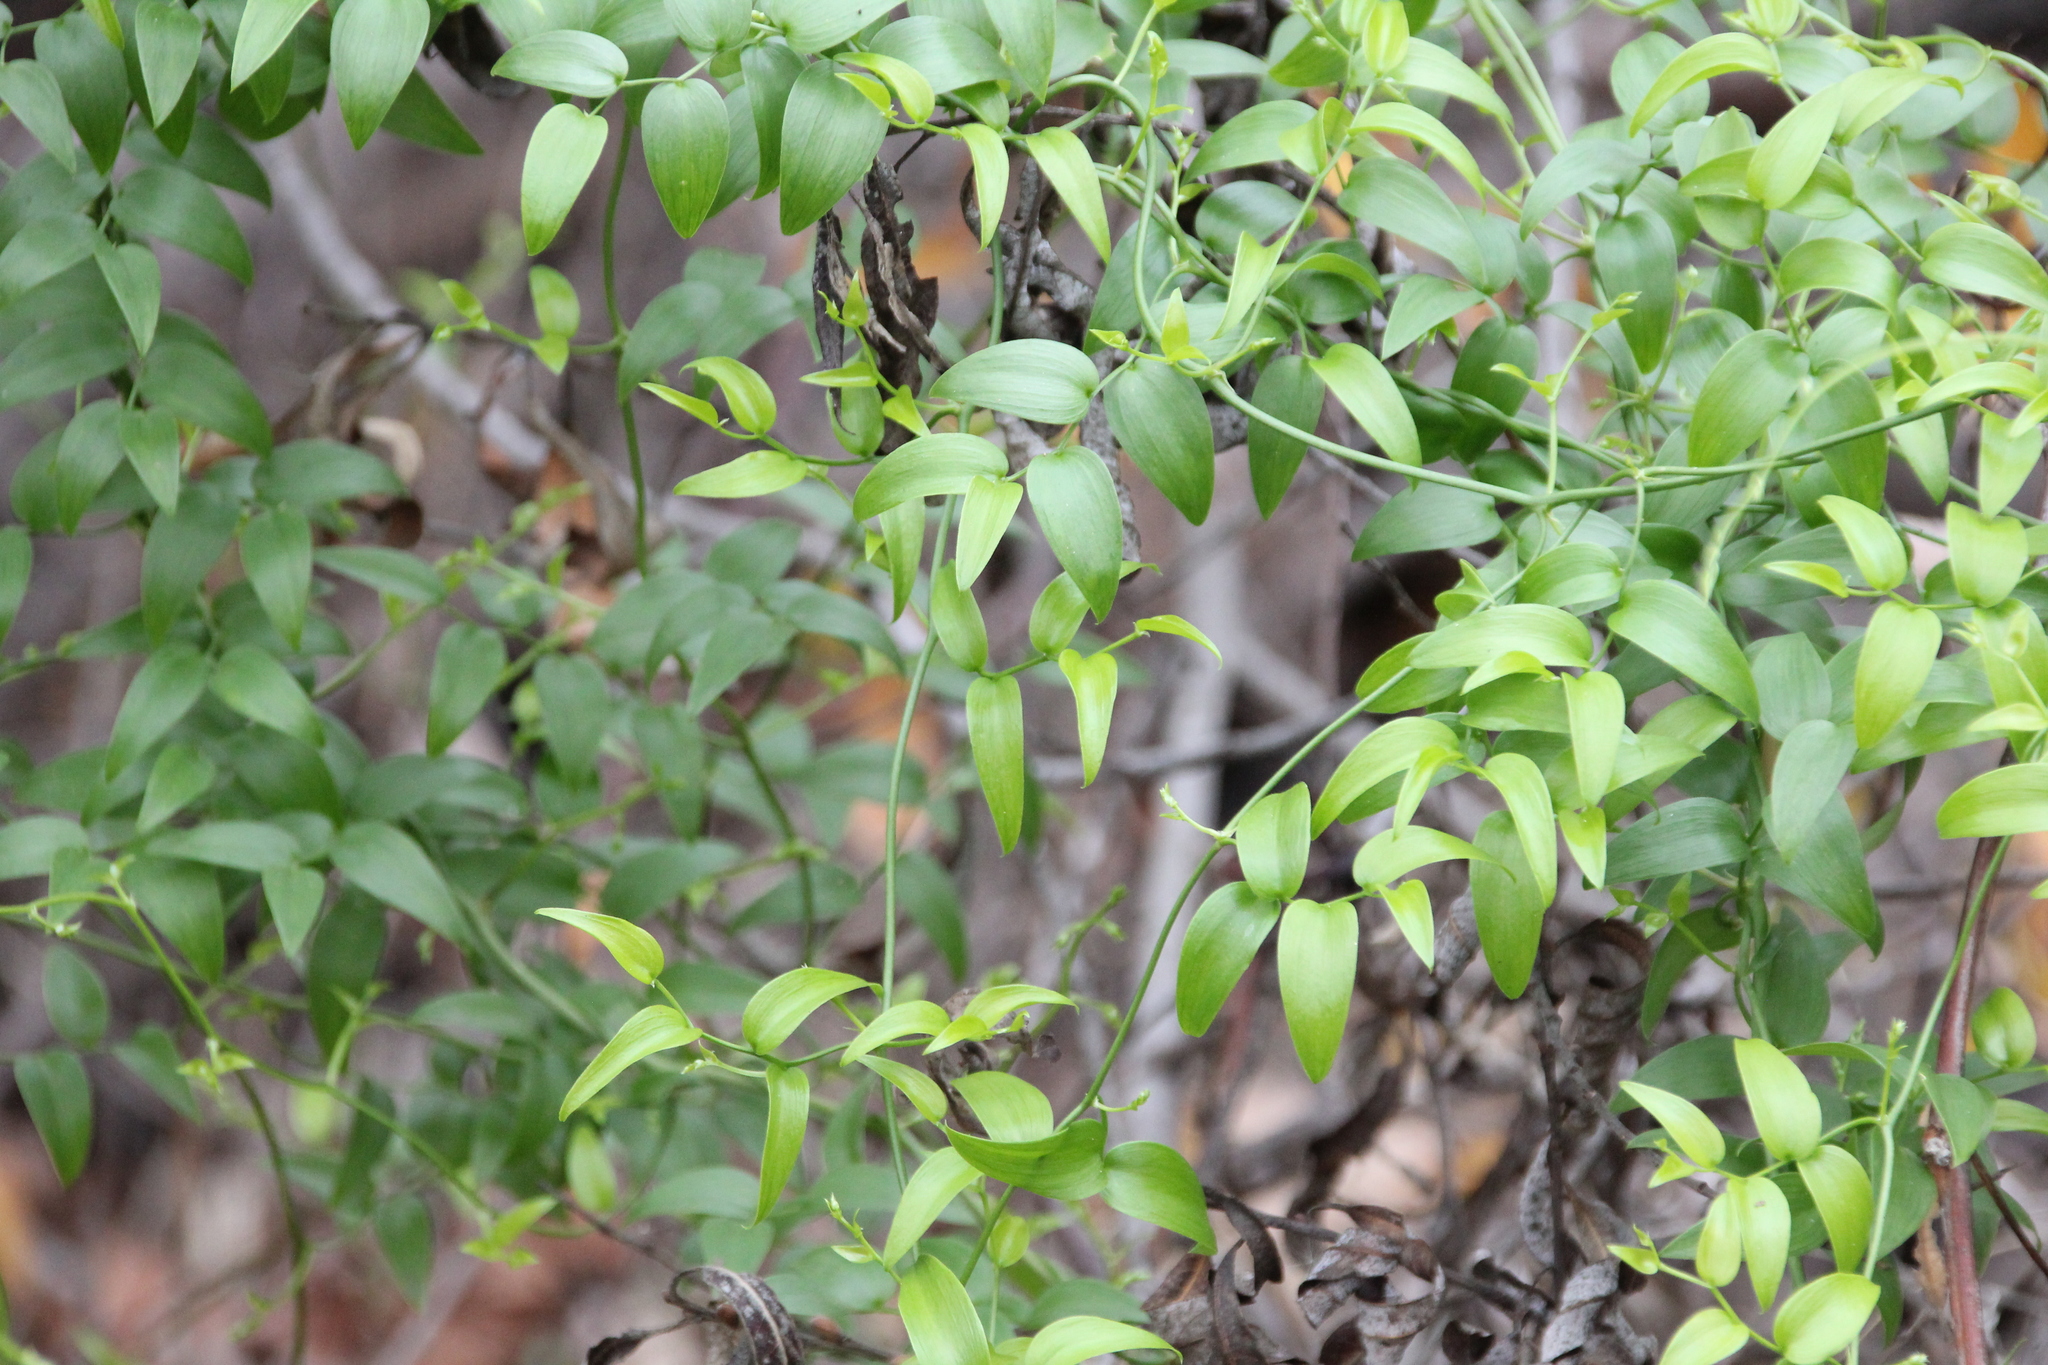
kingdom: Plantae
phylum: Tracheophyta
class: Liliopsida
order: Asparagales
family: Asparagaceae
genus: Asparagus
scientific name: Asparagus asparagoides
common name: African asparagus fern
